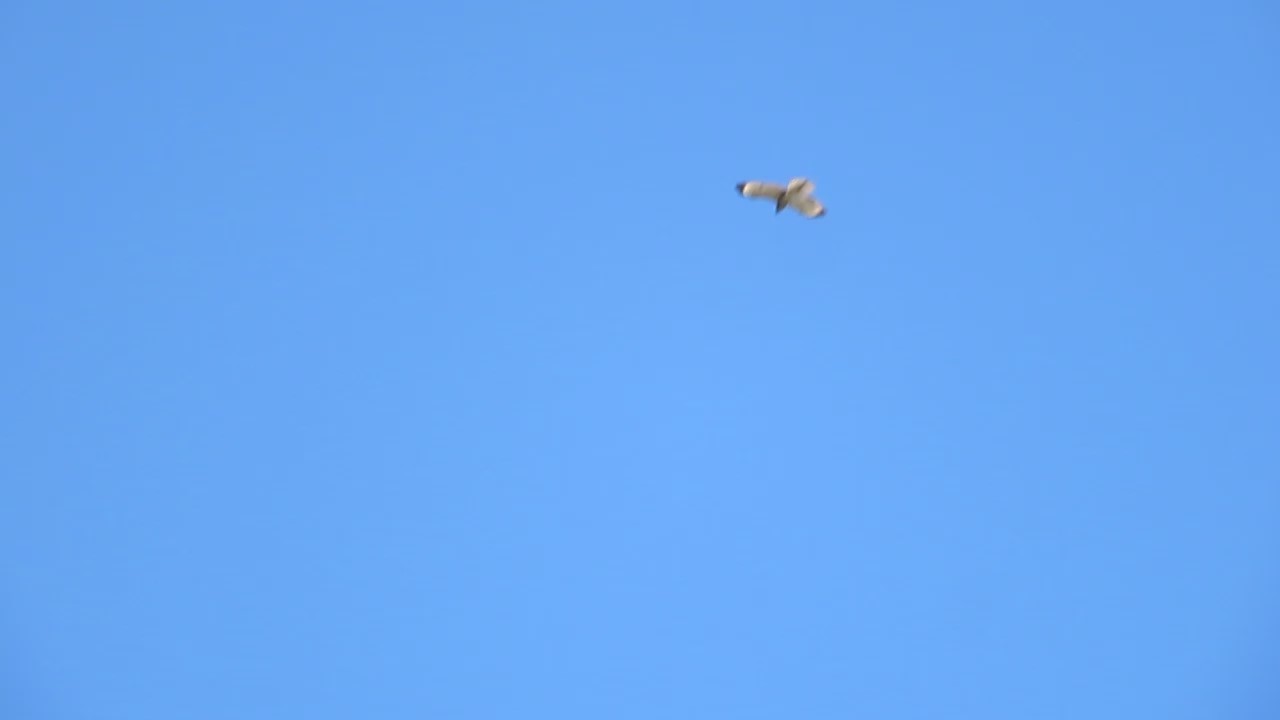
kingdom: Animalia
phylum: Chordata
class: Aves
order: Accipitriformes
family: Accipitridae
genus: Buteo
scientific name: Buteo lineatus
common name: Red-shouldered hawk
